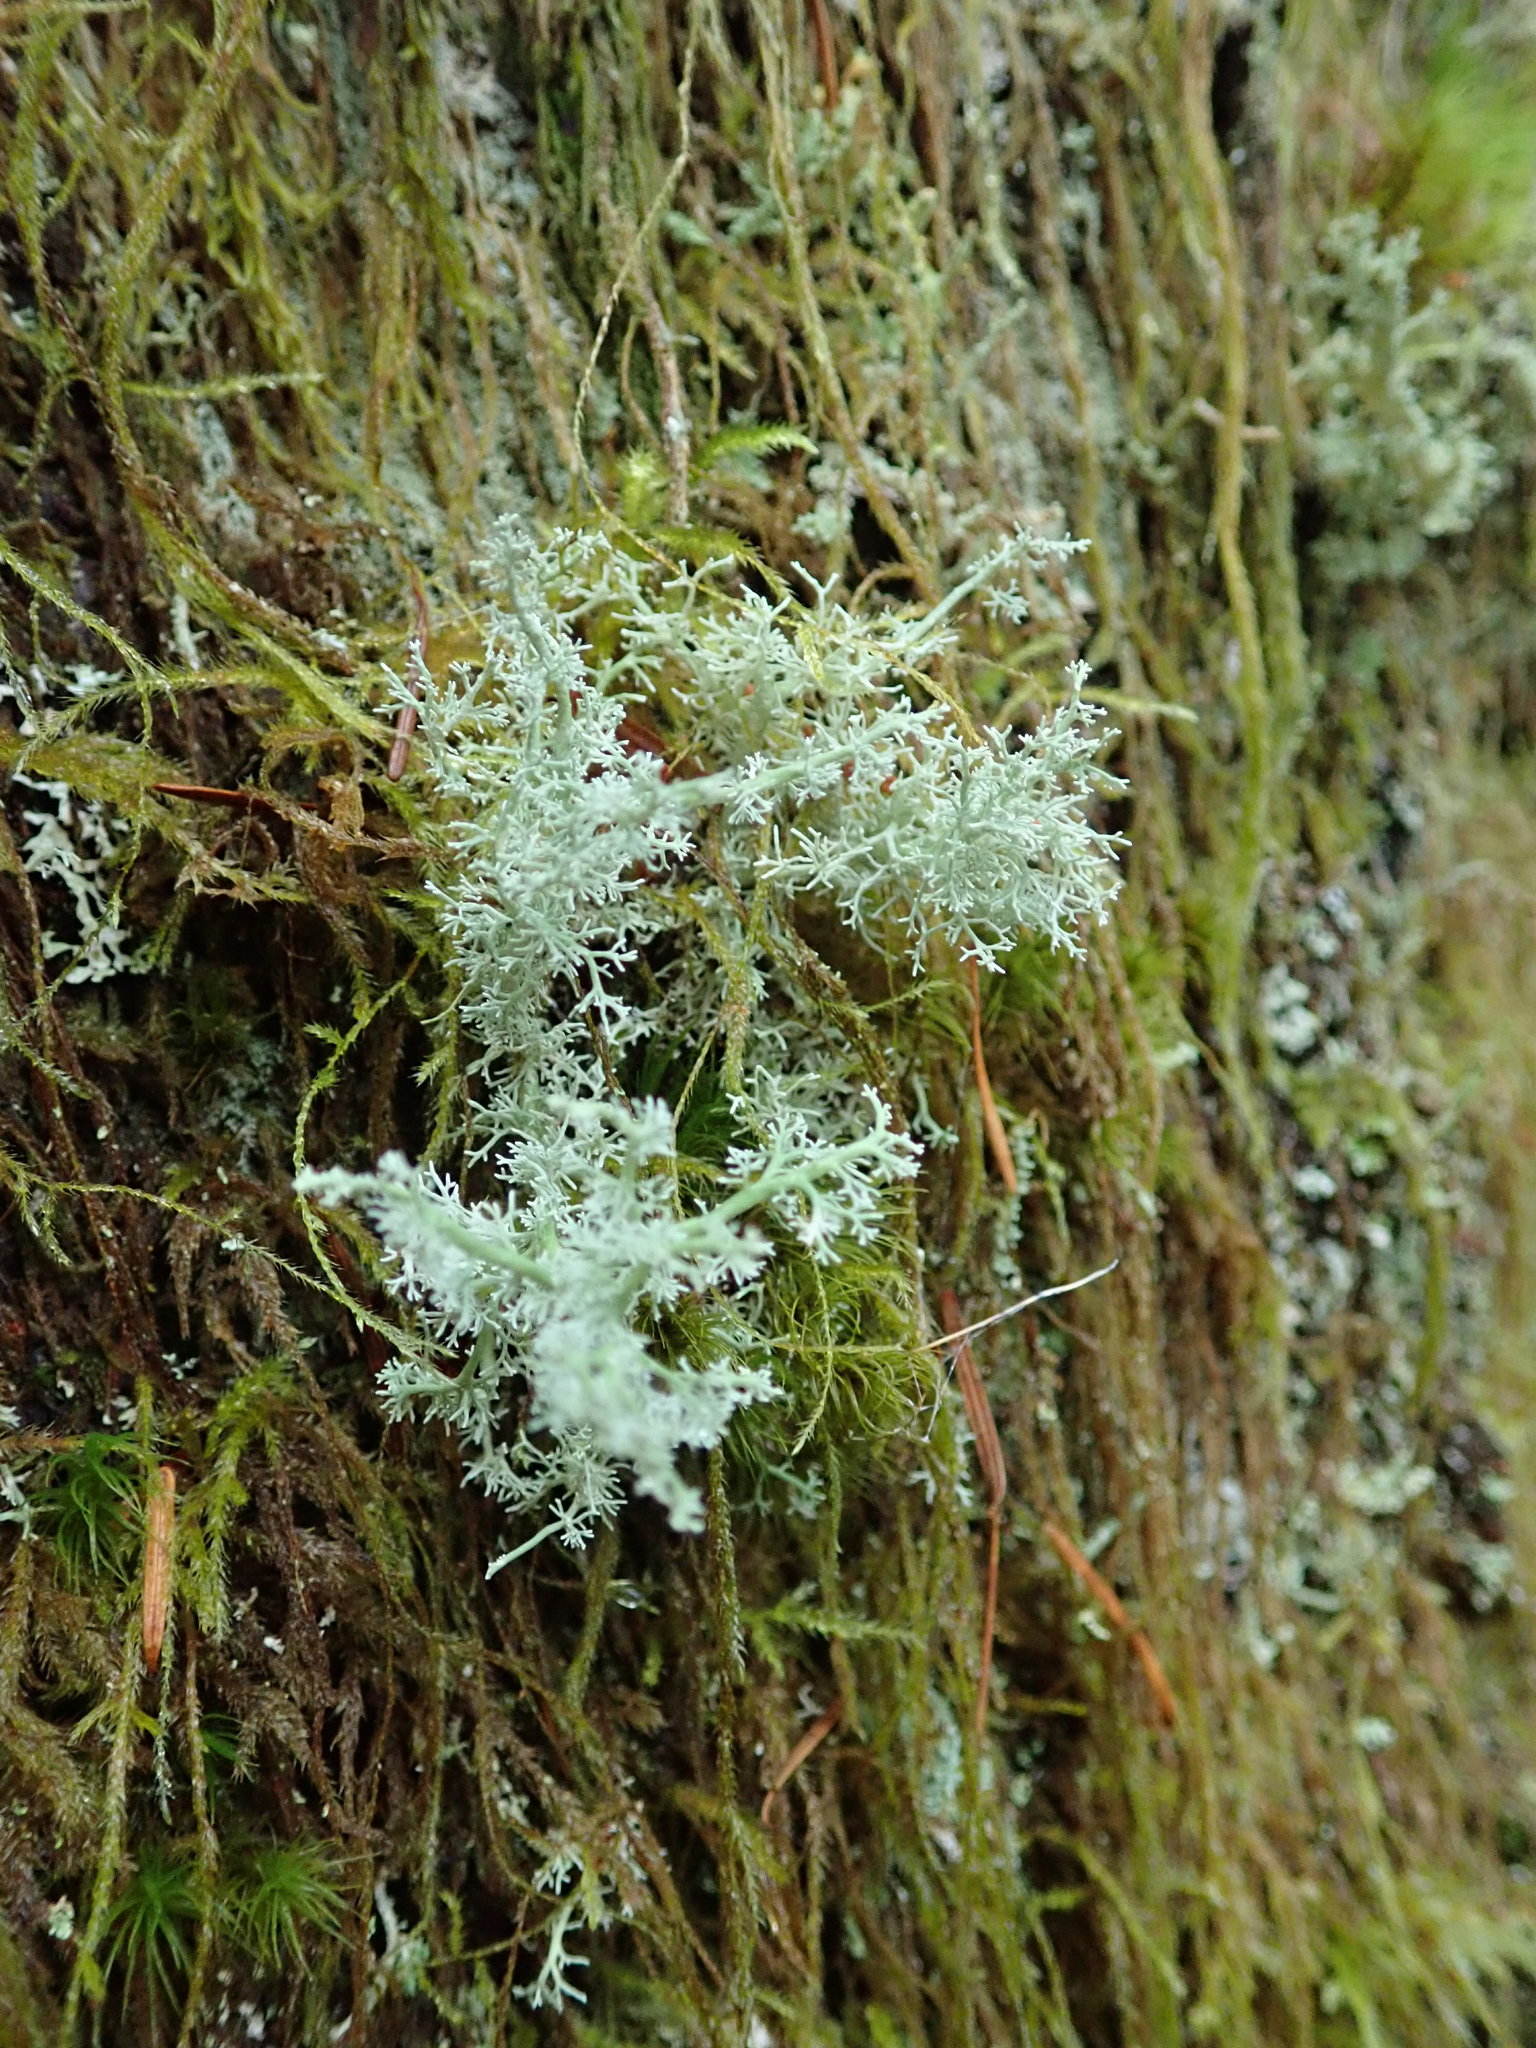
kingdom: Fungi
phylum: Ascomycota
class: Lecanoromycetes
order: Lecanorales
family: Sphaerophoraceae
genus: Sphaerophorus
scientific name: Sphaerophorus globosus
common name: Globe ball lichen
